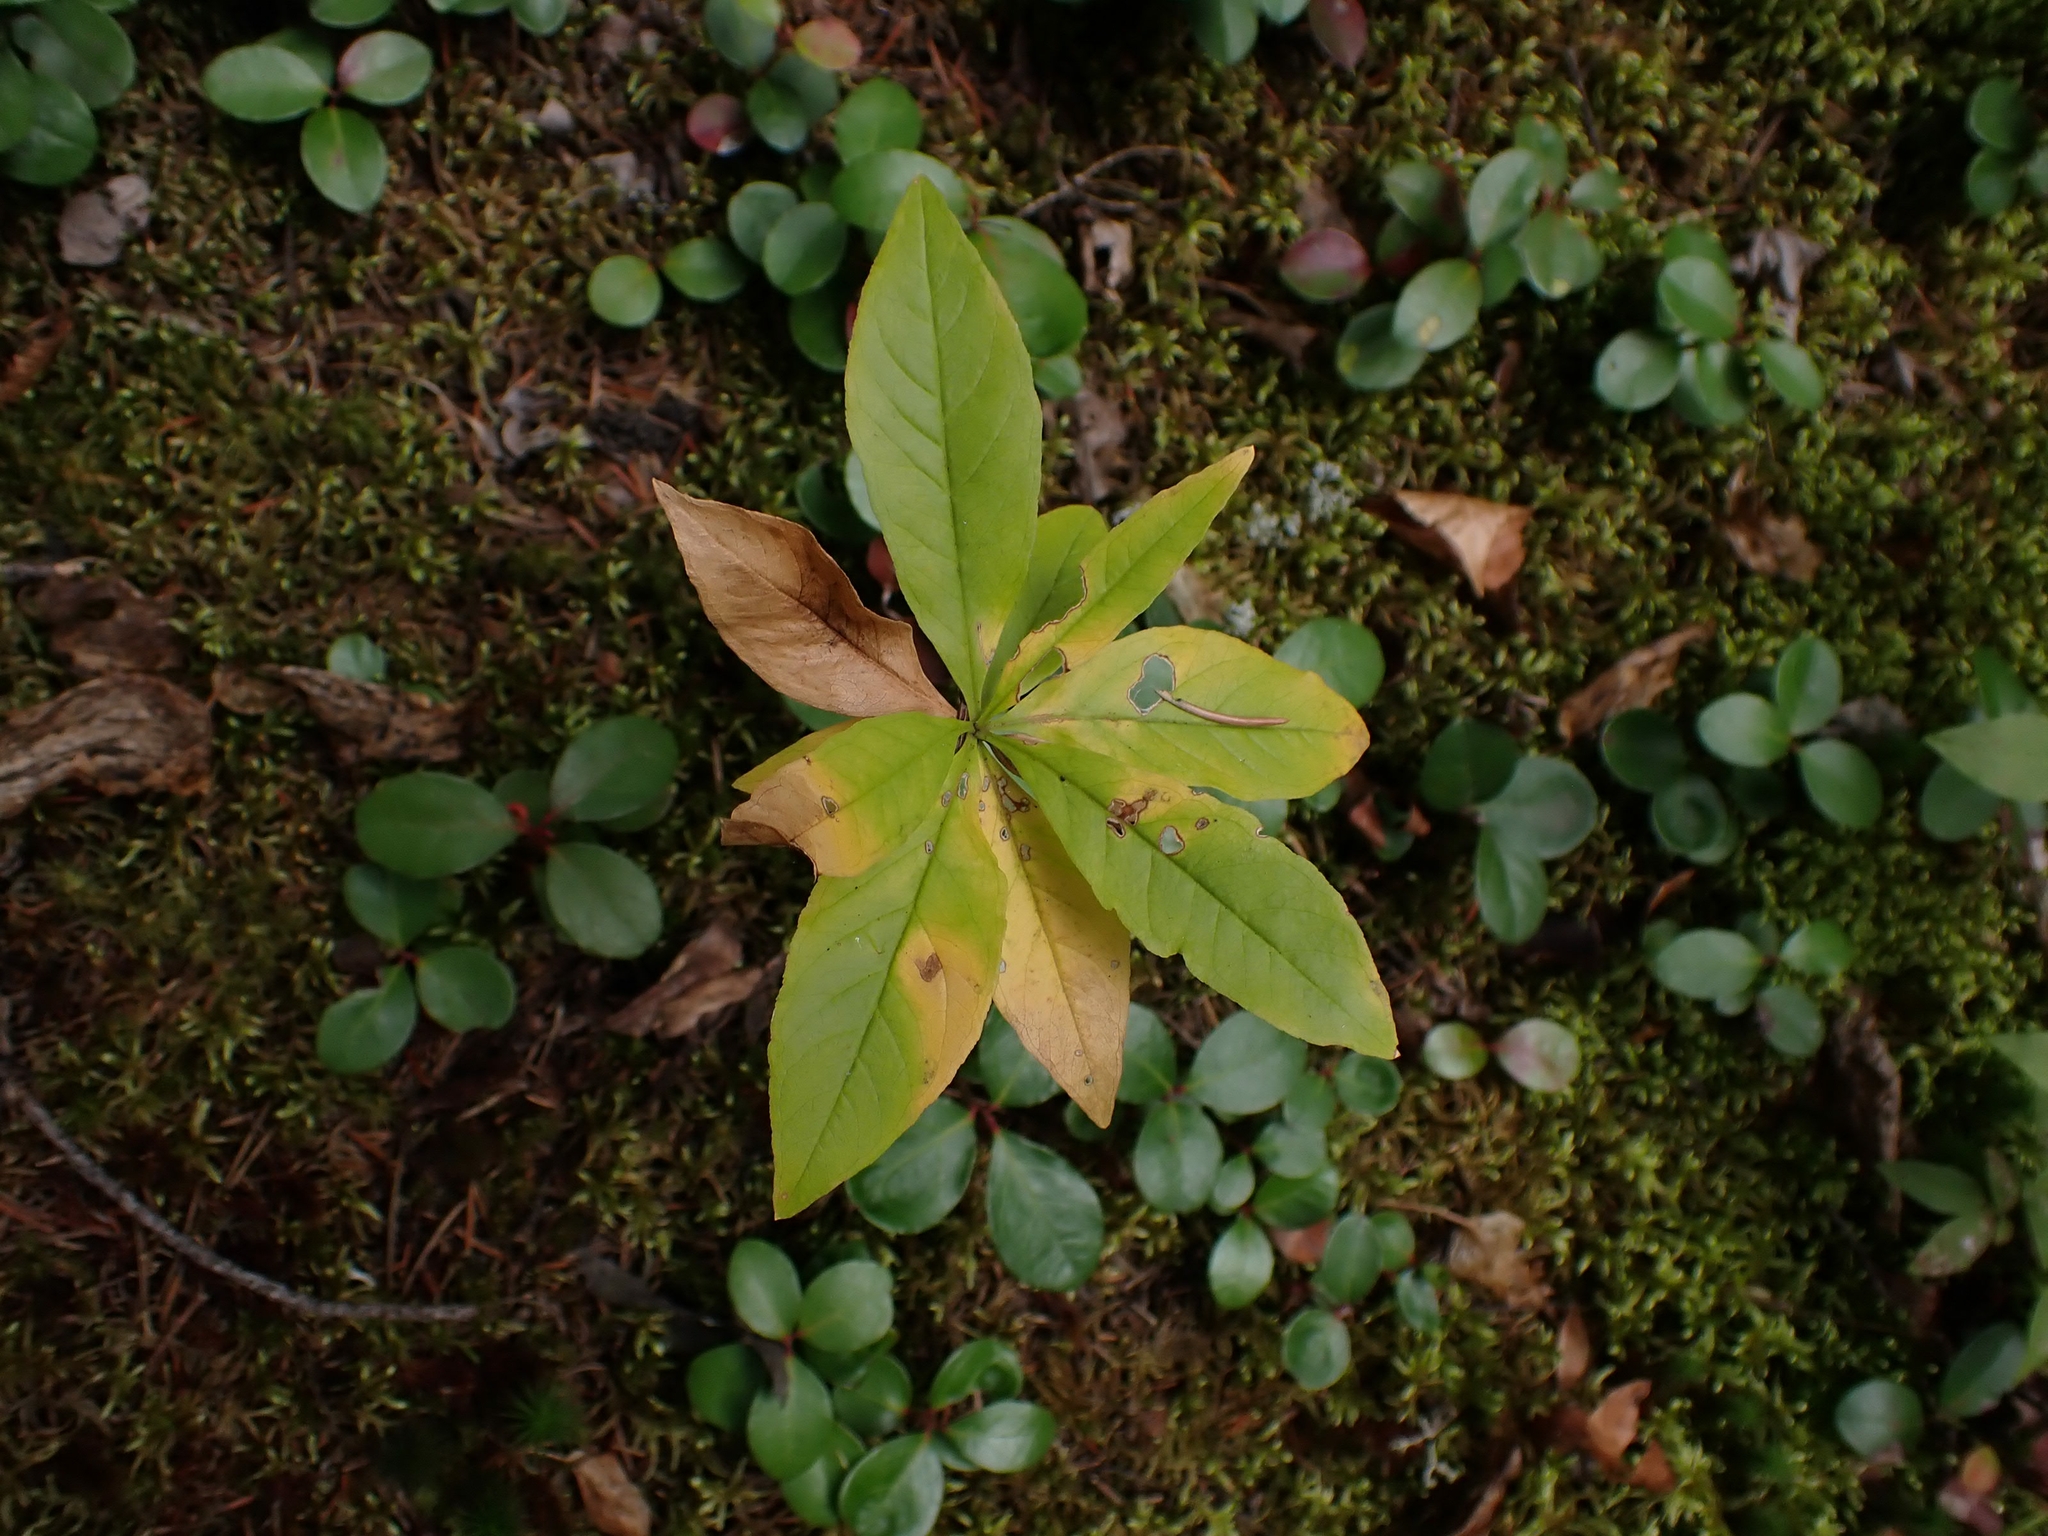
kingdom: Plantae
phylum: Tracheophyta
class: Magnoliopsida
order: Ericales
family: Primulaceae
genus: Lysimachia
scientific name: Lysimachia borealis
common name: American starflower
